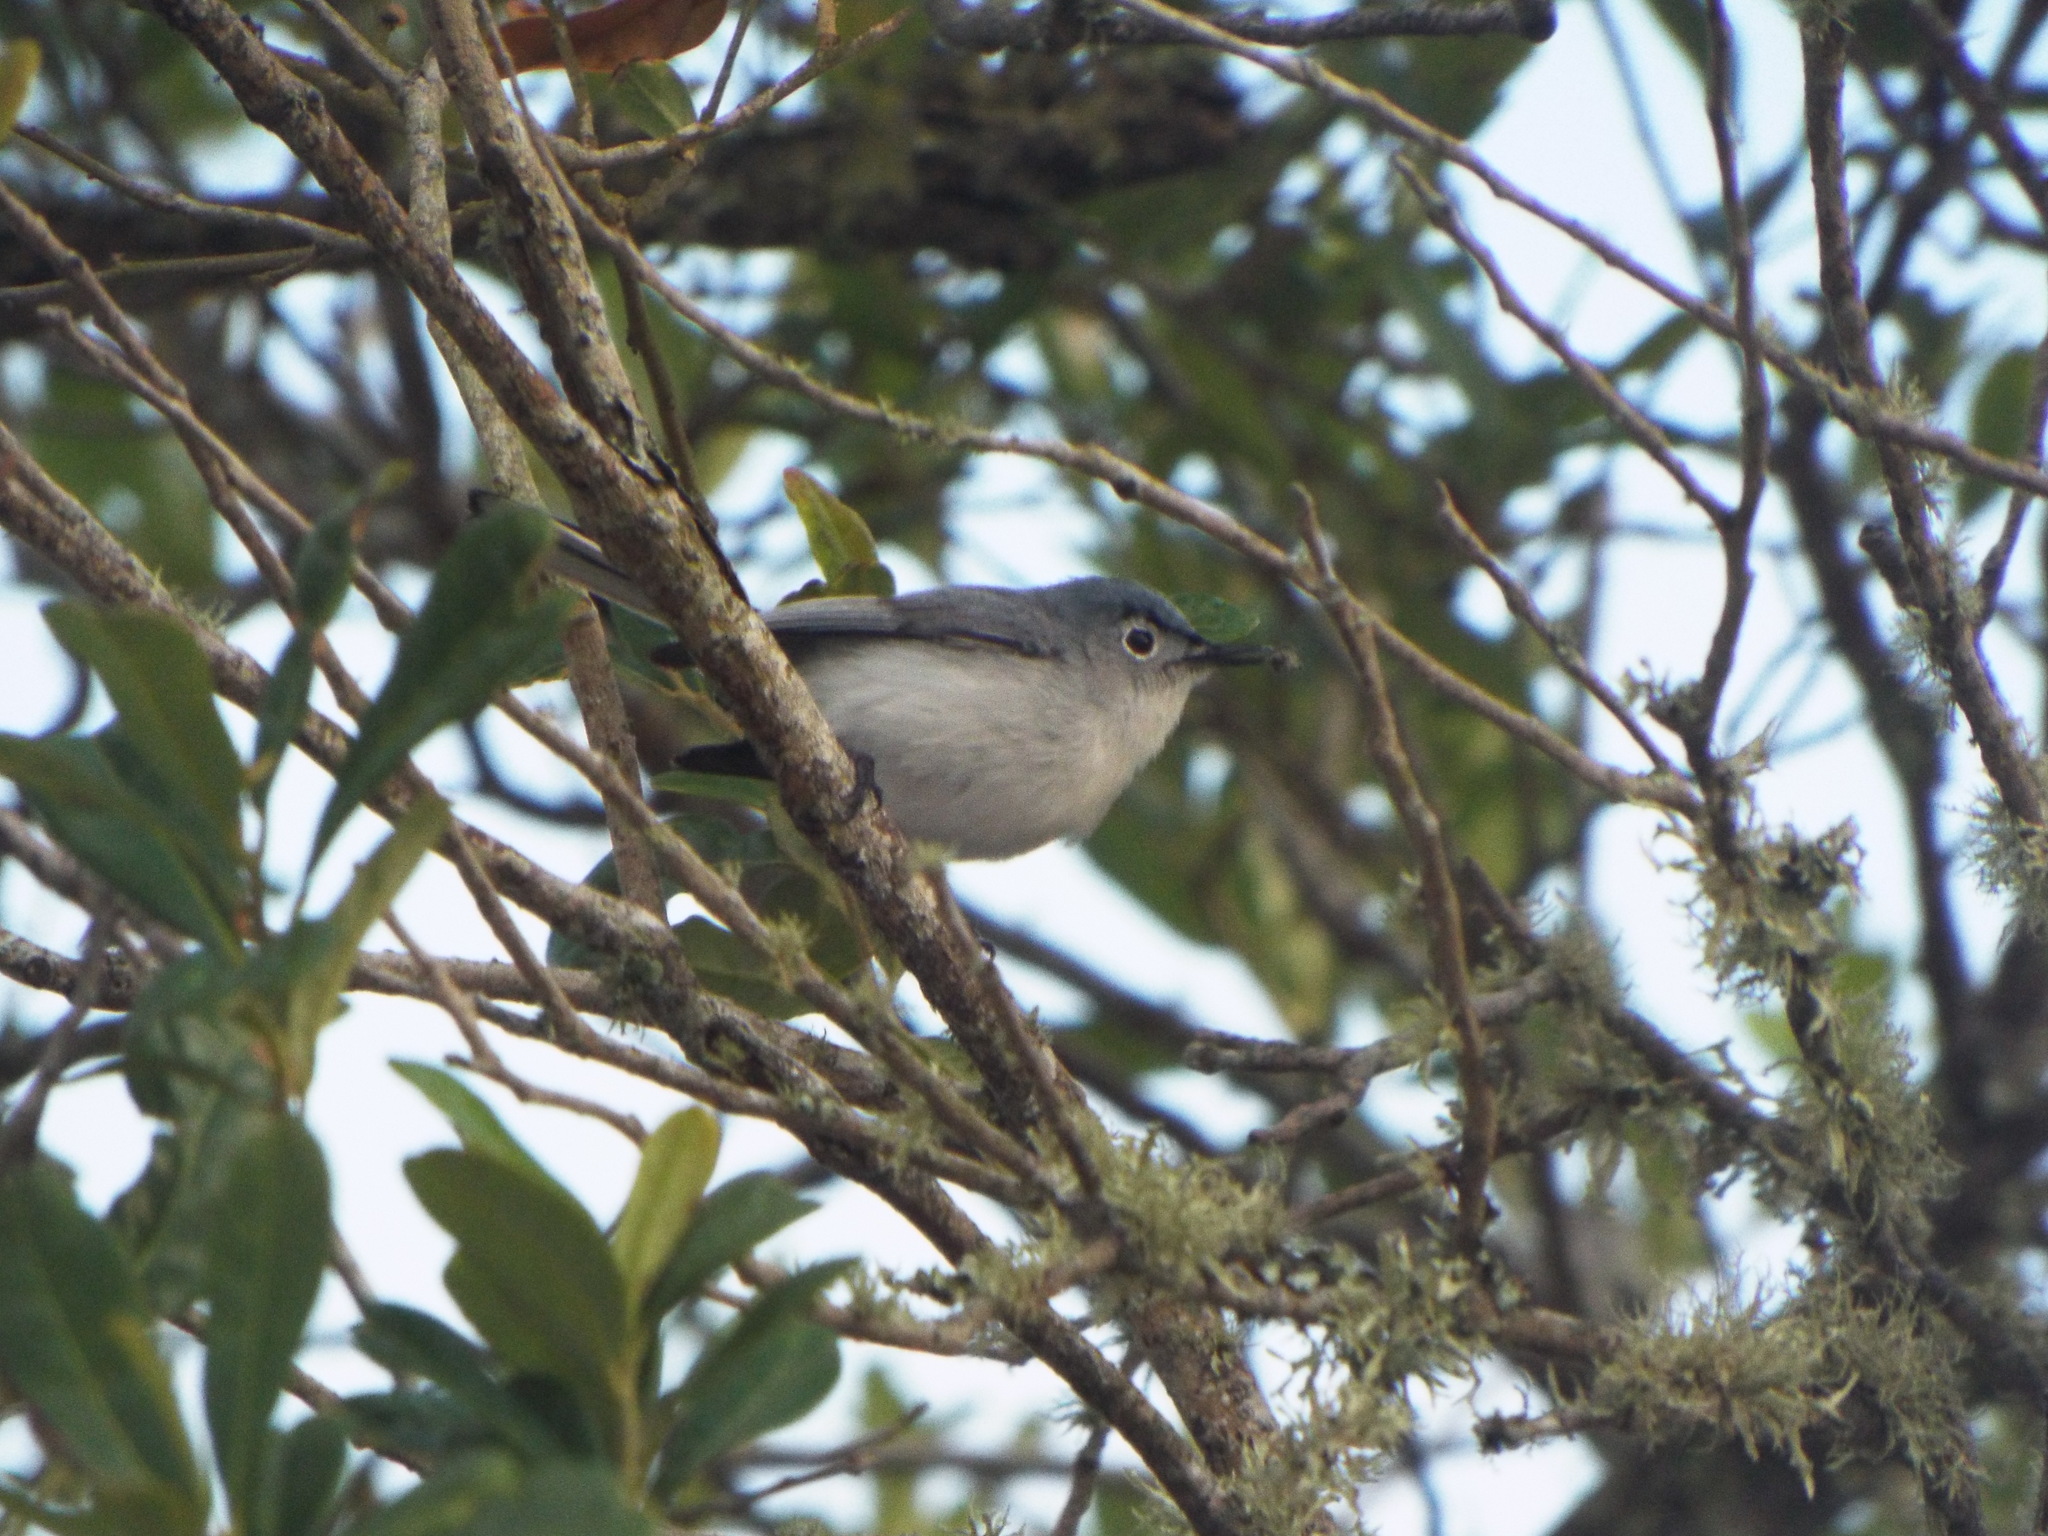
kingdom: Animalia
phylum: Chordata
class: Aves
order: Passeriformes
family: Polioptilidae
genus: Polioptila
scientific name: Polioptila caerulea
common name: Blue-gray gnatcatcher
